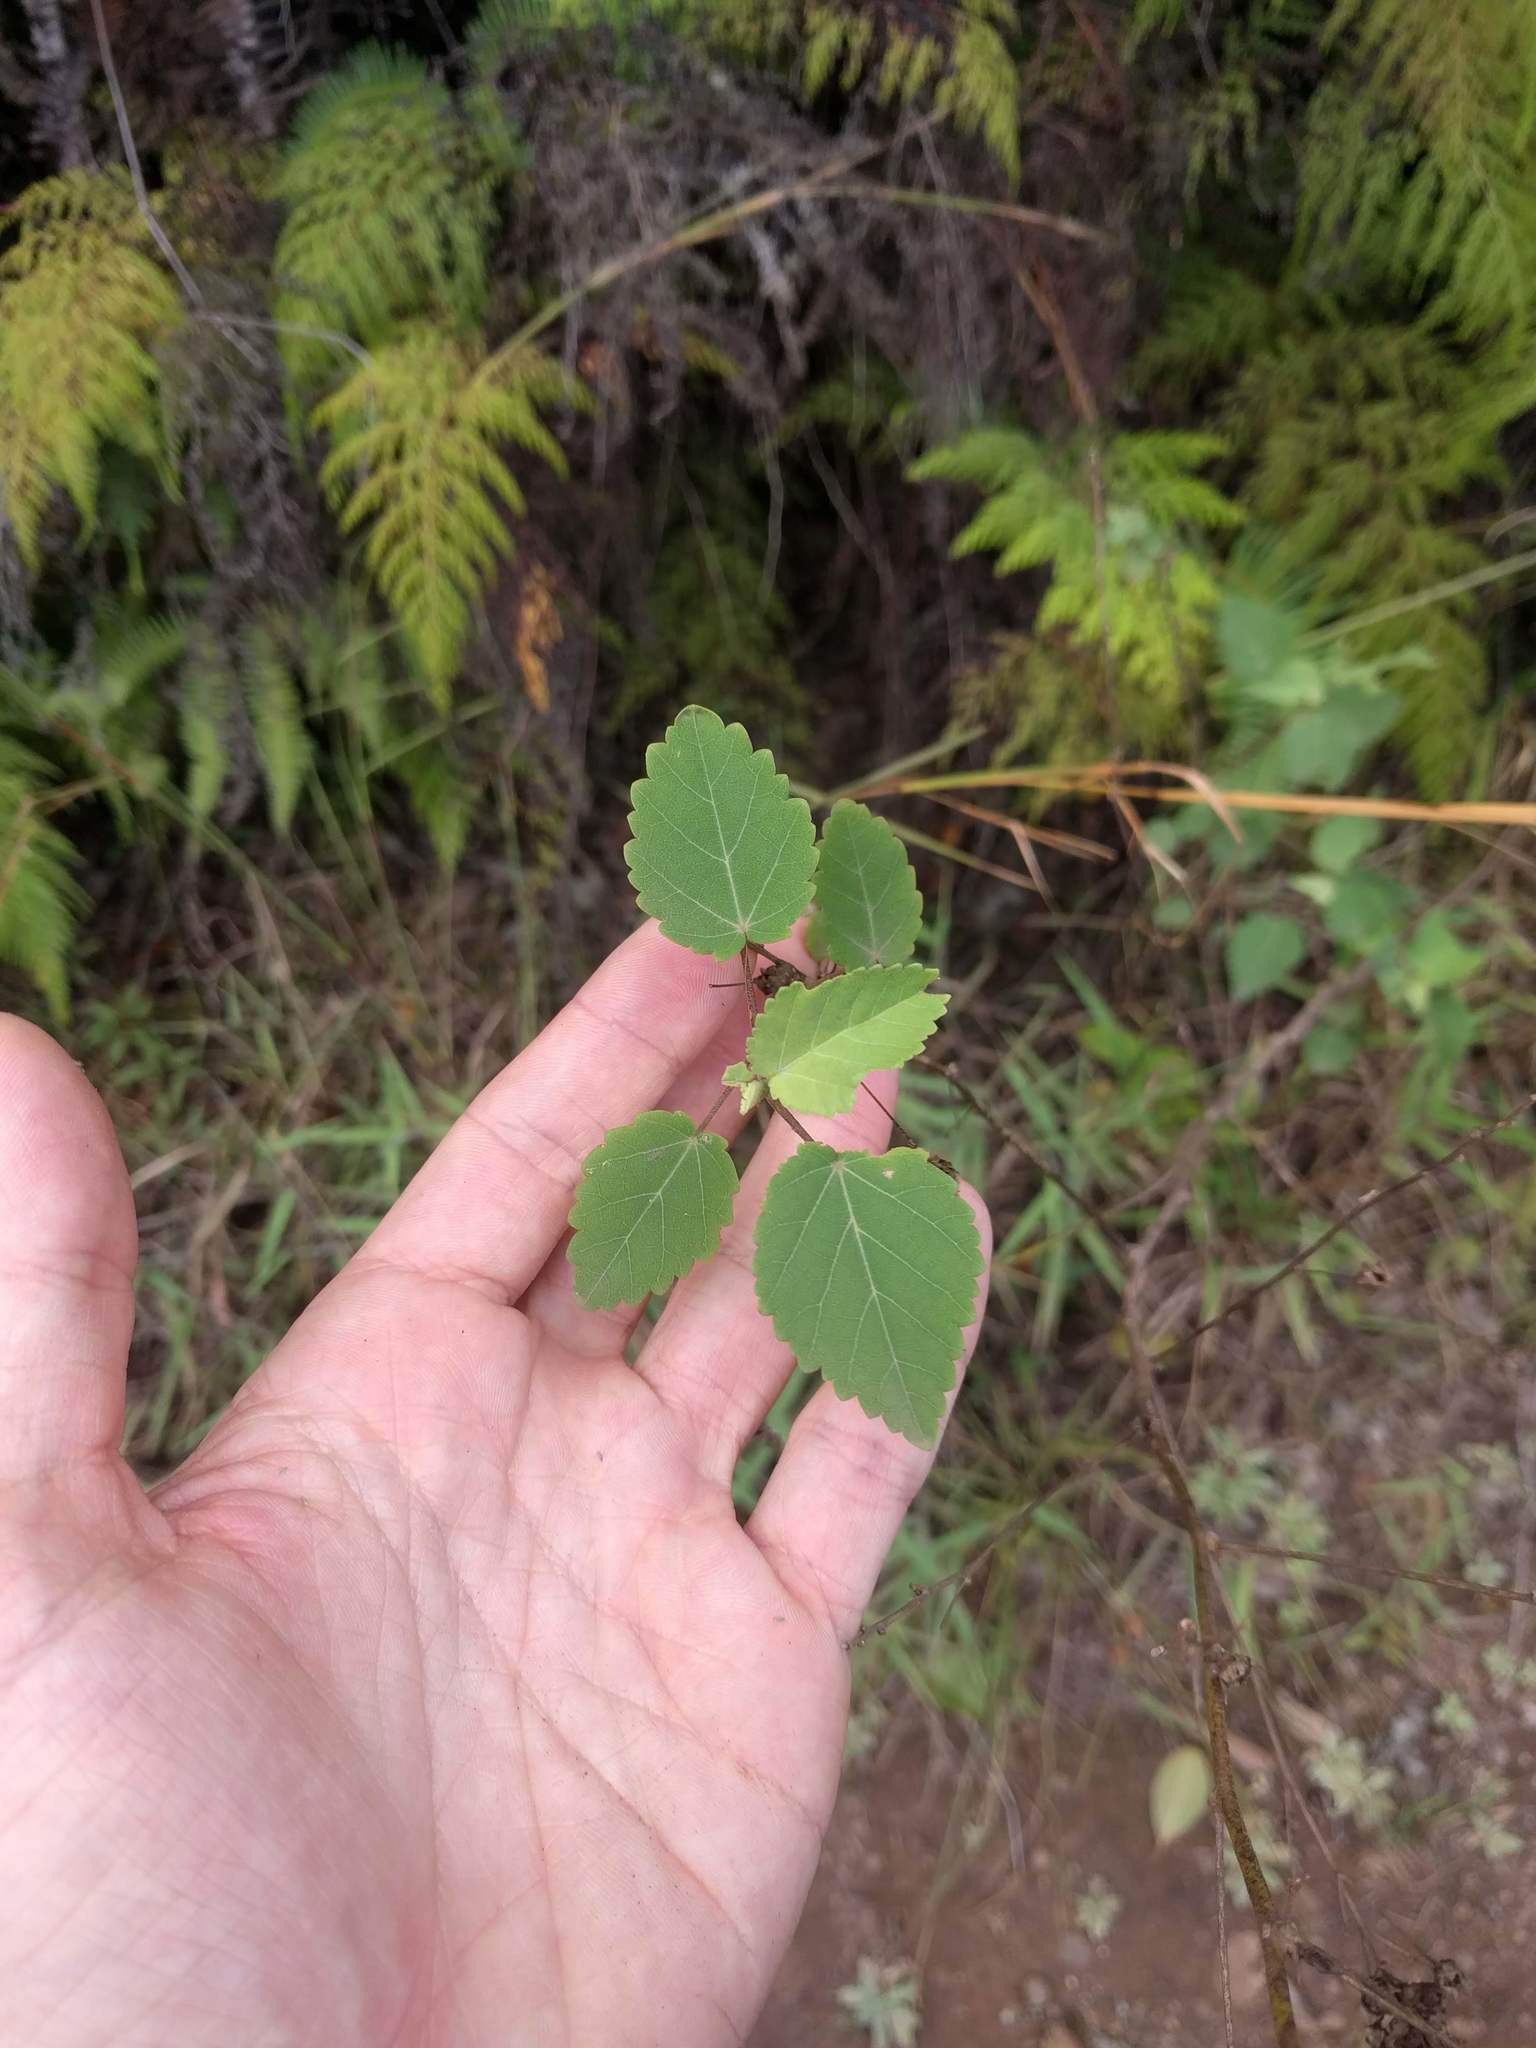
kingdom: Plantae
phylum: Tracheophyta
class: Magnoliopsida
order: Malvales
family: Malvaceae
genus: Sida
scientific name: Sida fallax
